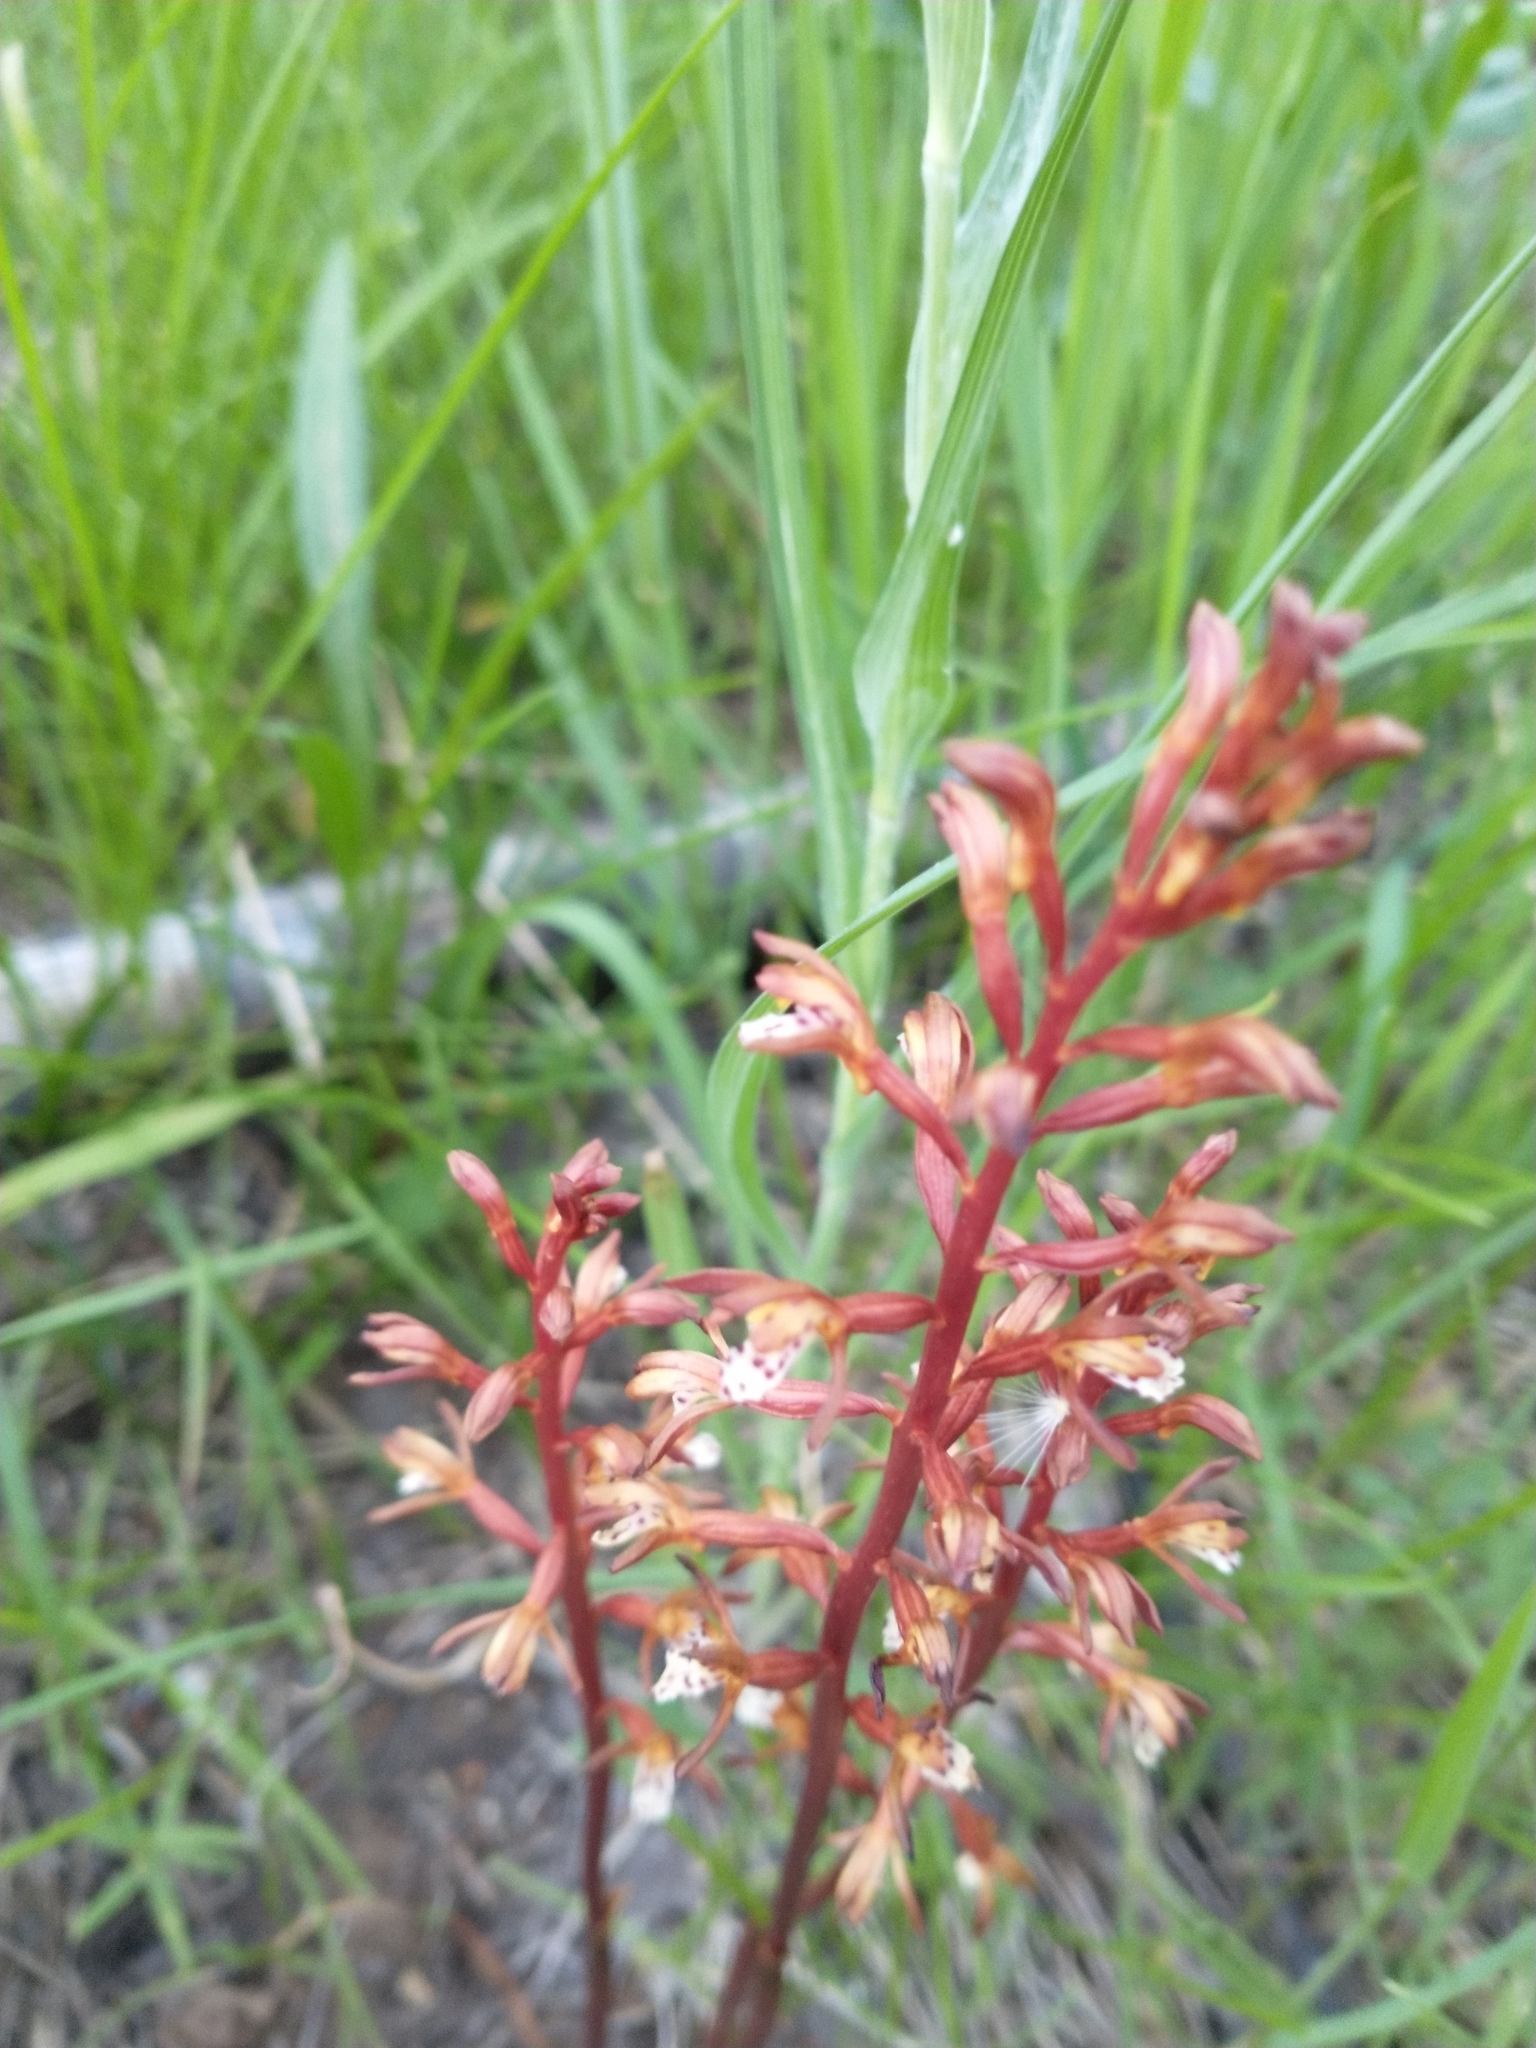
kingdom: Plantae
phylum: Tracheophyta
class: Liliopsida
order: Asparagales
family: Orchidaceae
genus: Corallorhiza
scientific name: Corallorhiza maculata
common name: Spotted coralroot
